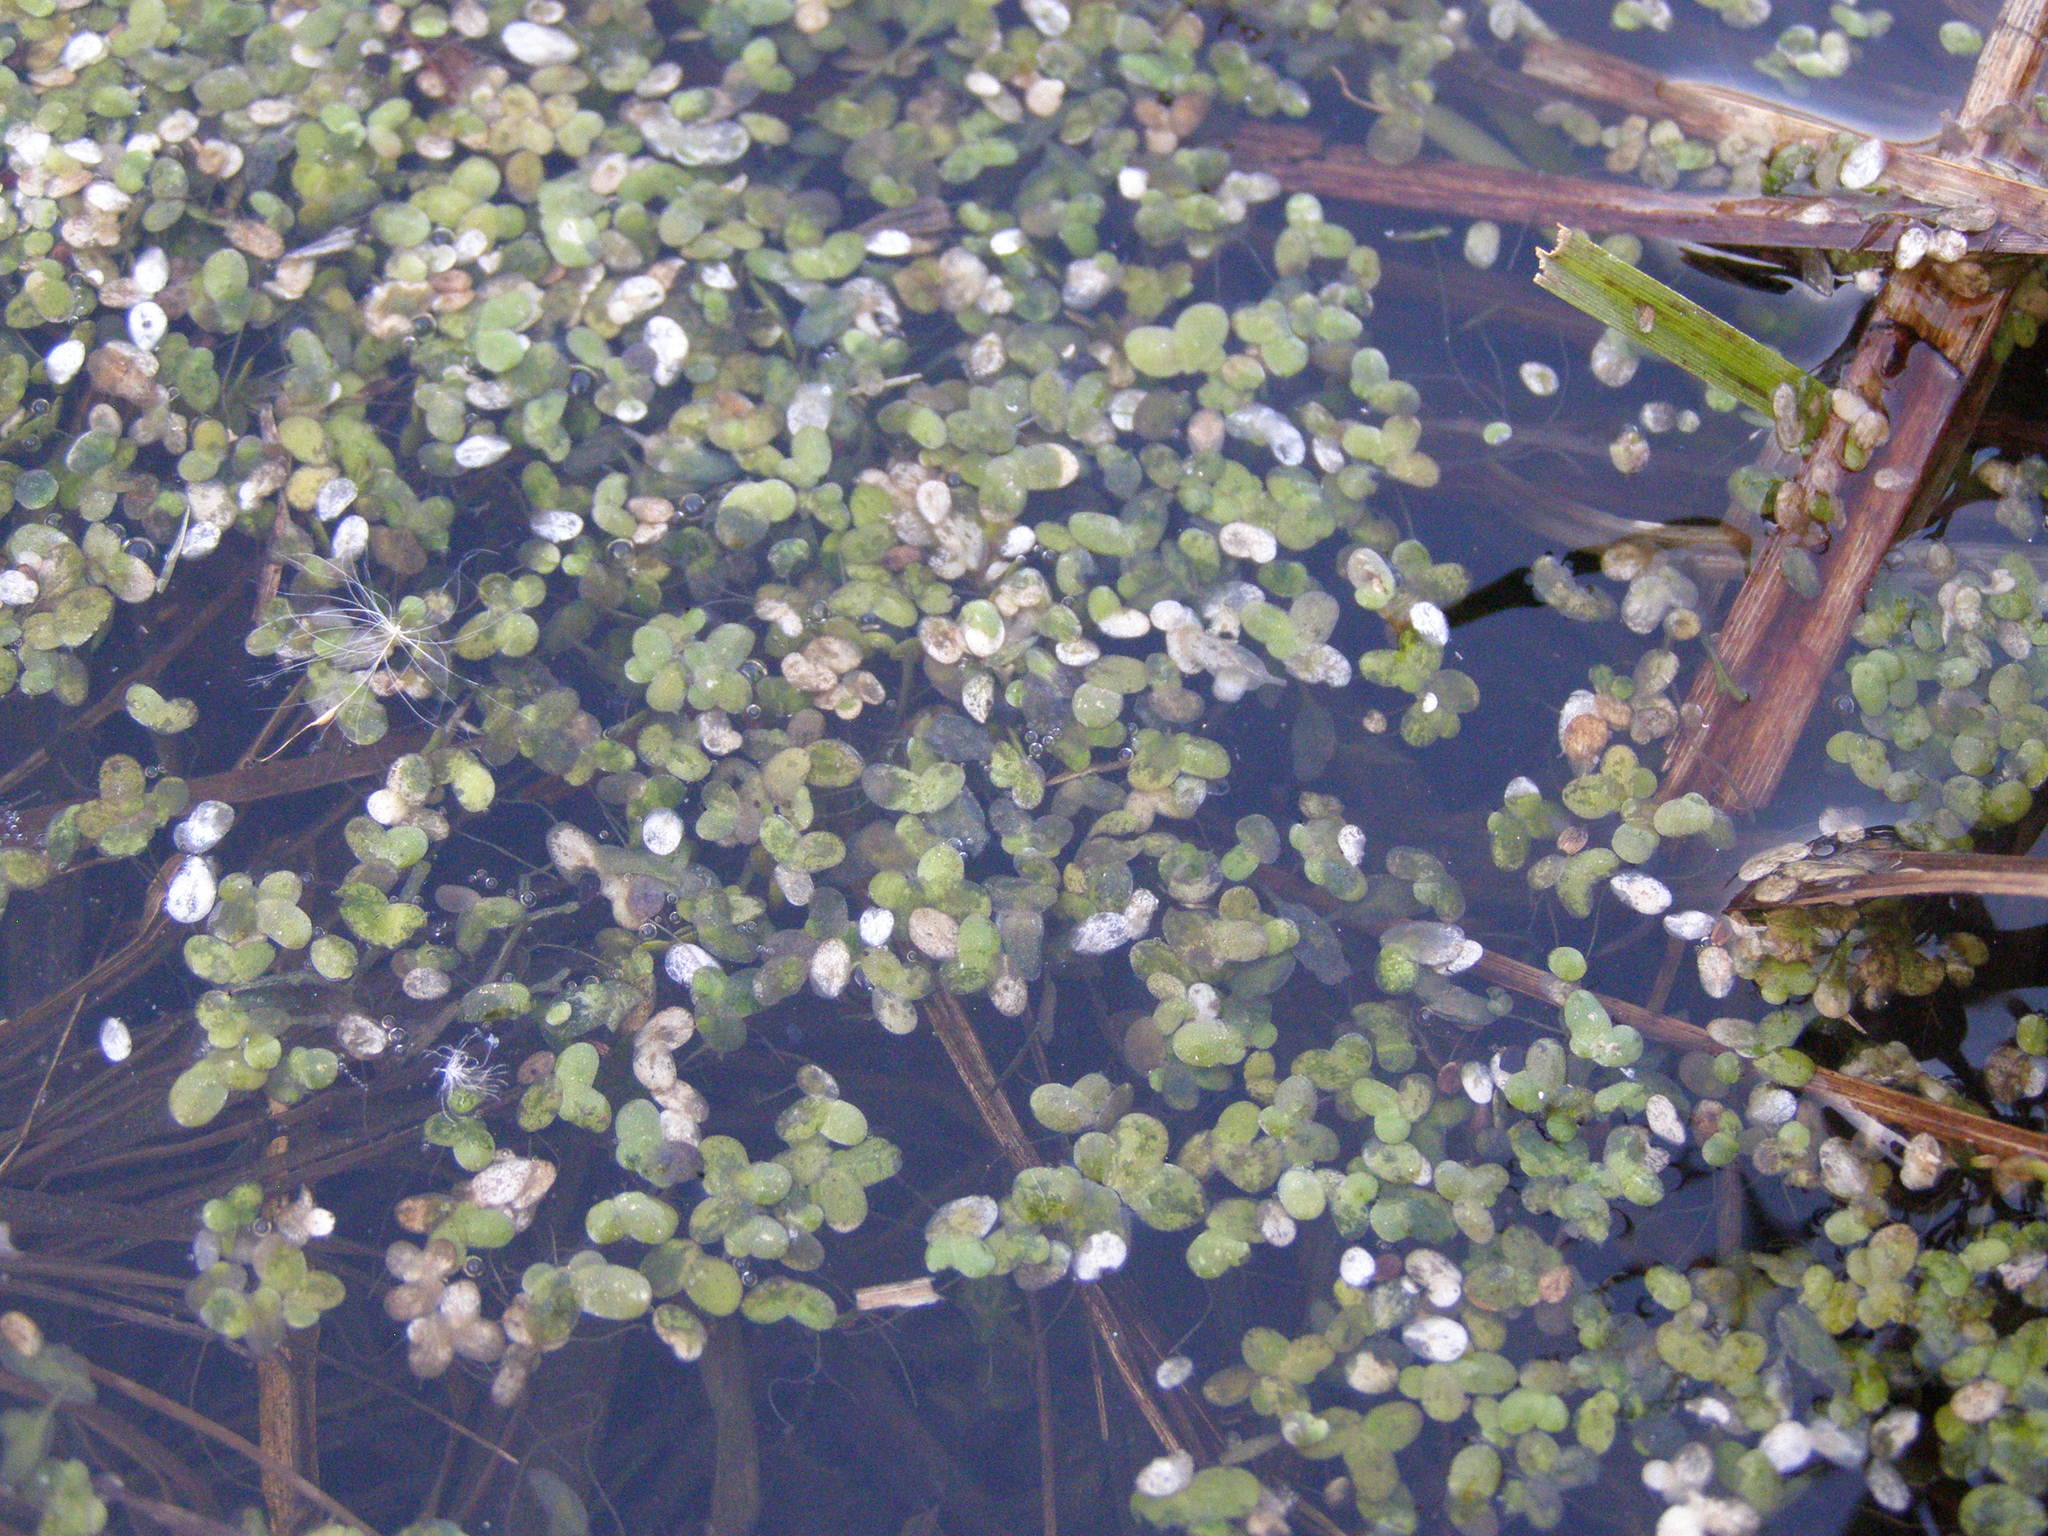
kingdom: Plantae
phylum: Tracheophyta
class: Liliopsida
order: Alismatales
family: Araceae
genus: Lemna
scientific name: Lemna minor
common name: Common duckweed
